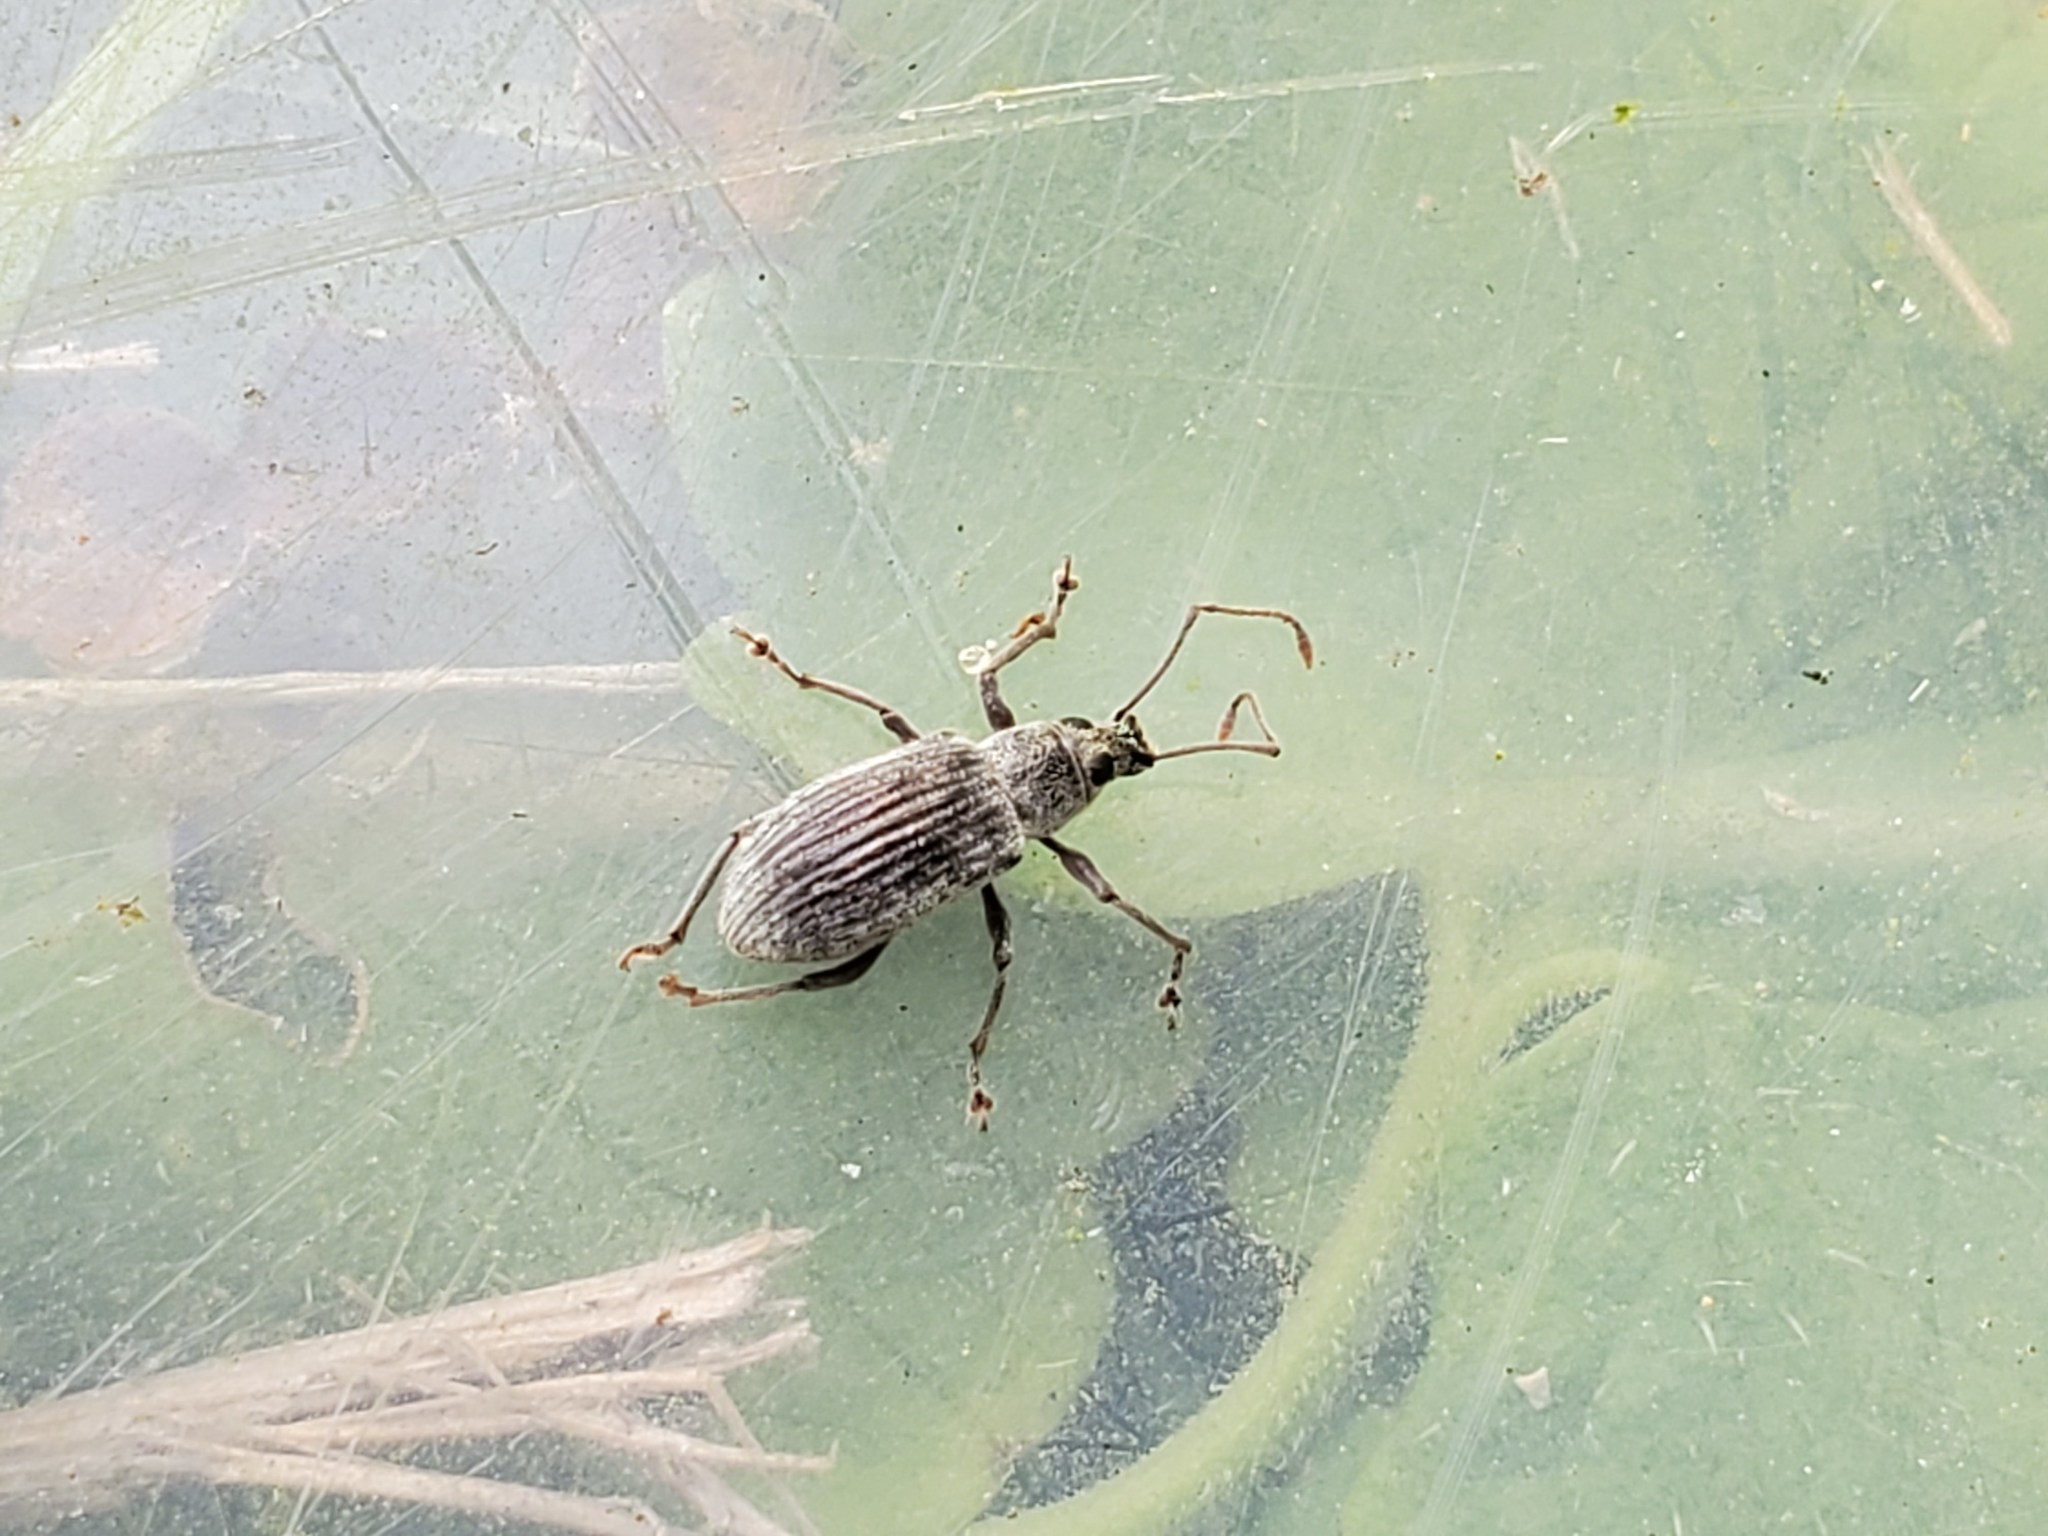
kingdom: Animalia
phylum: Arthropoda
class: Insecta
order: Coleoptera
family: Curculionidae
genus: Cyrtepistomus
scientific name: Cyrtepistomus castaneus
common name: Weevil
